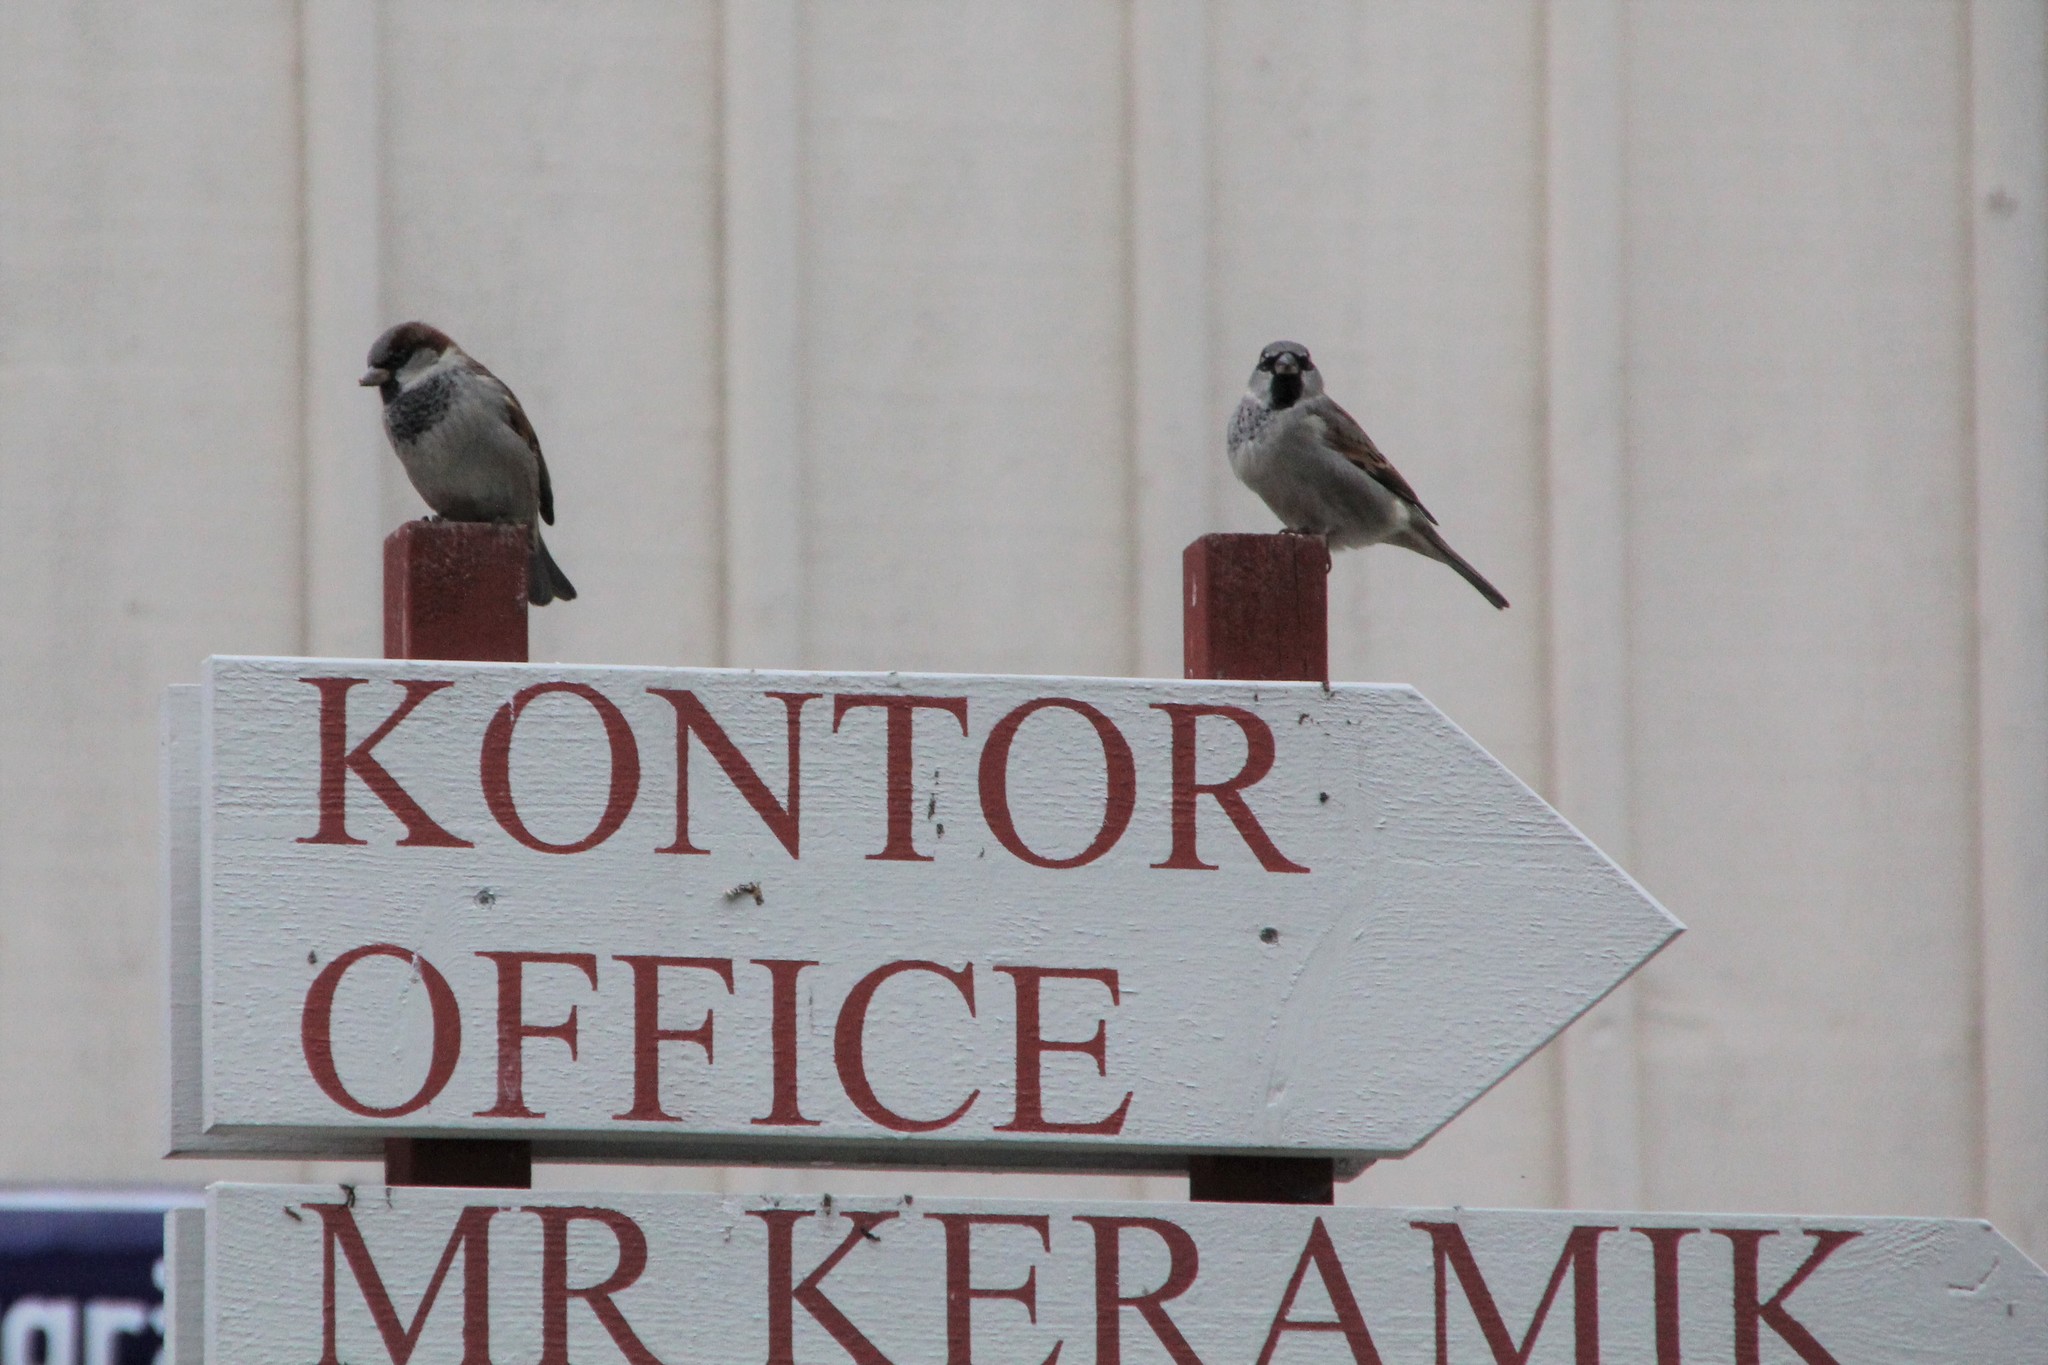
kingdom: Animalia
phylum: Chordata
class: Aves
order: Passeriformes
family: Passeridae
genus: Passer
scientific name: Passer domesticus
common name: House sparrow
